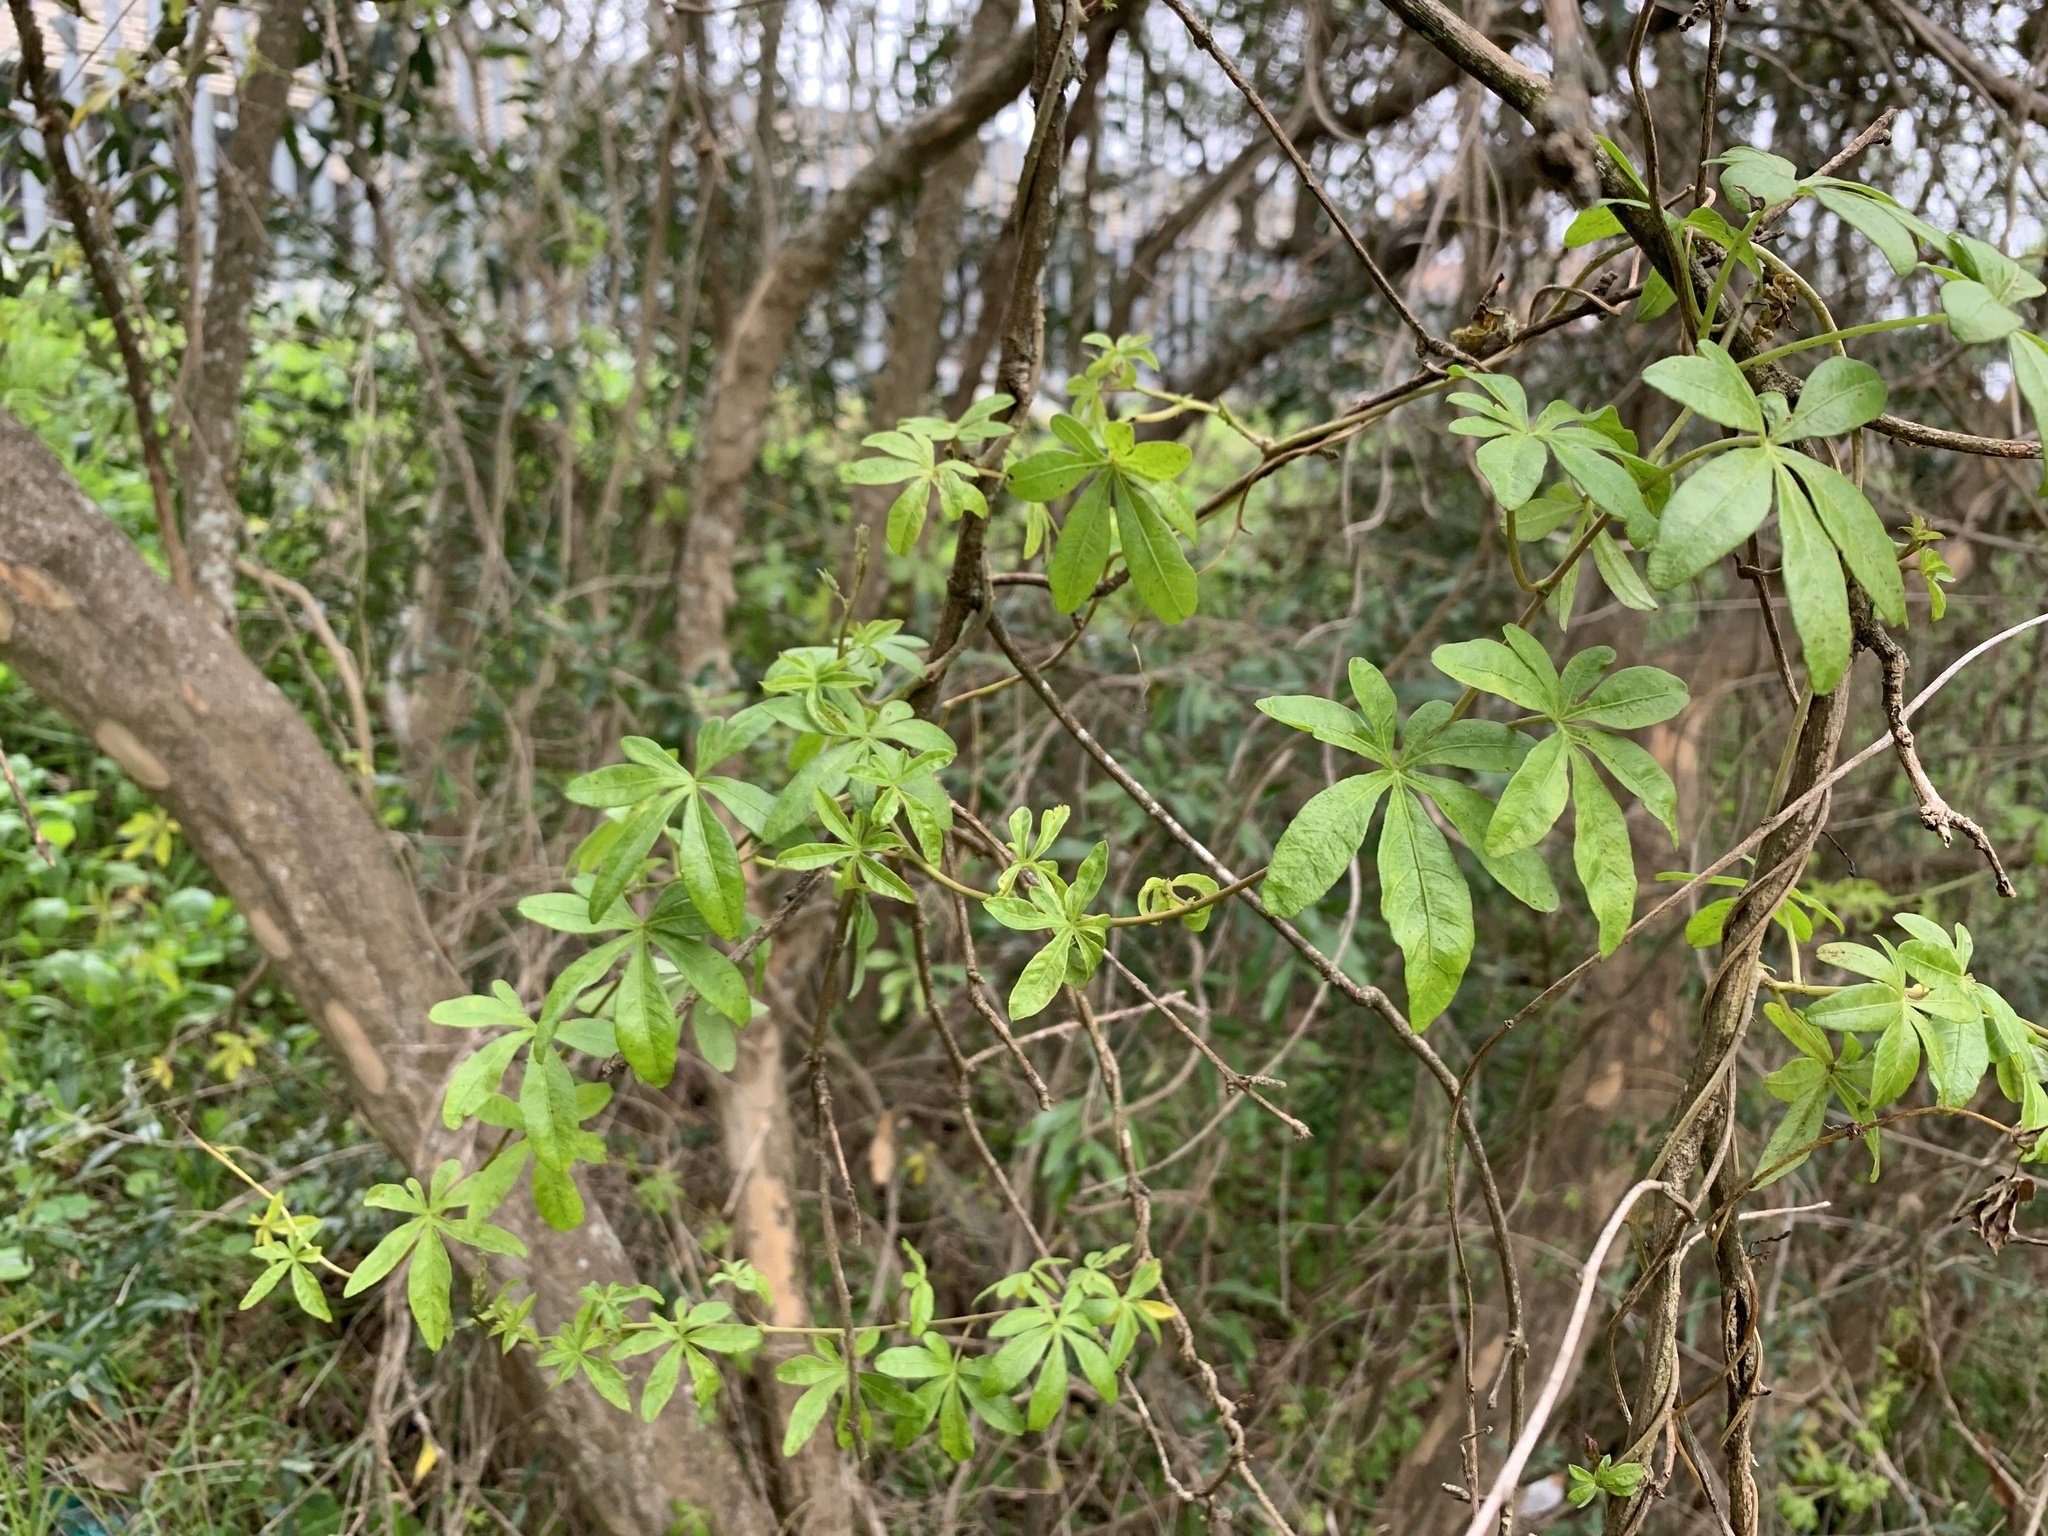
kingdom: Plantae
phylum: Tracheophyta
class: Magnoliopsida
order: Solanales
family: Convolvulaceae
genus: Ipomoea
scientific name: Ipomoea cairica
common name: Mile a minute vine
